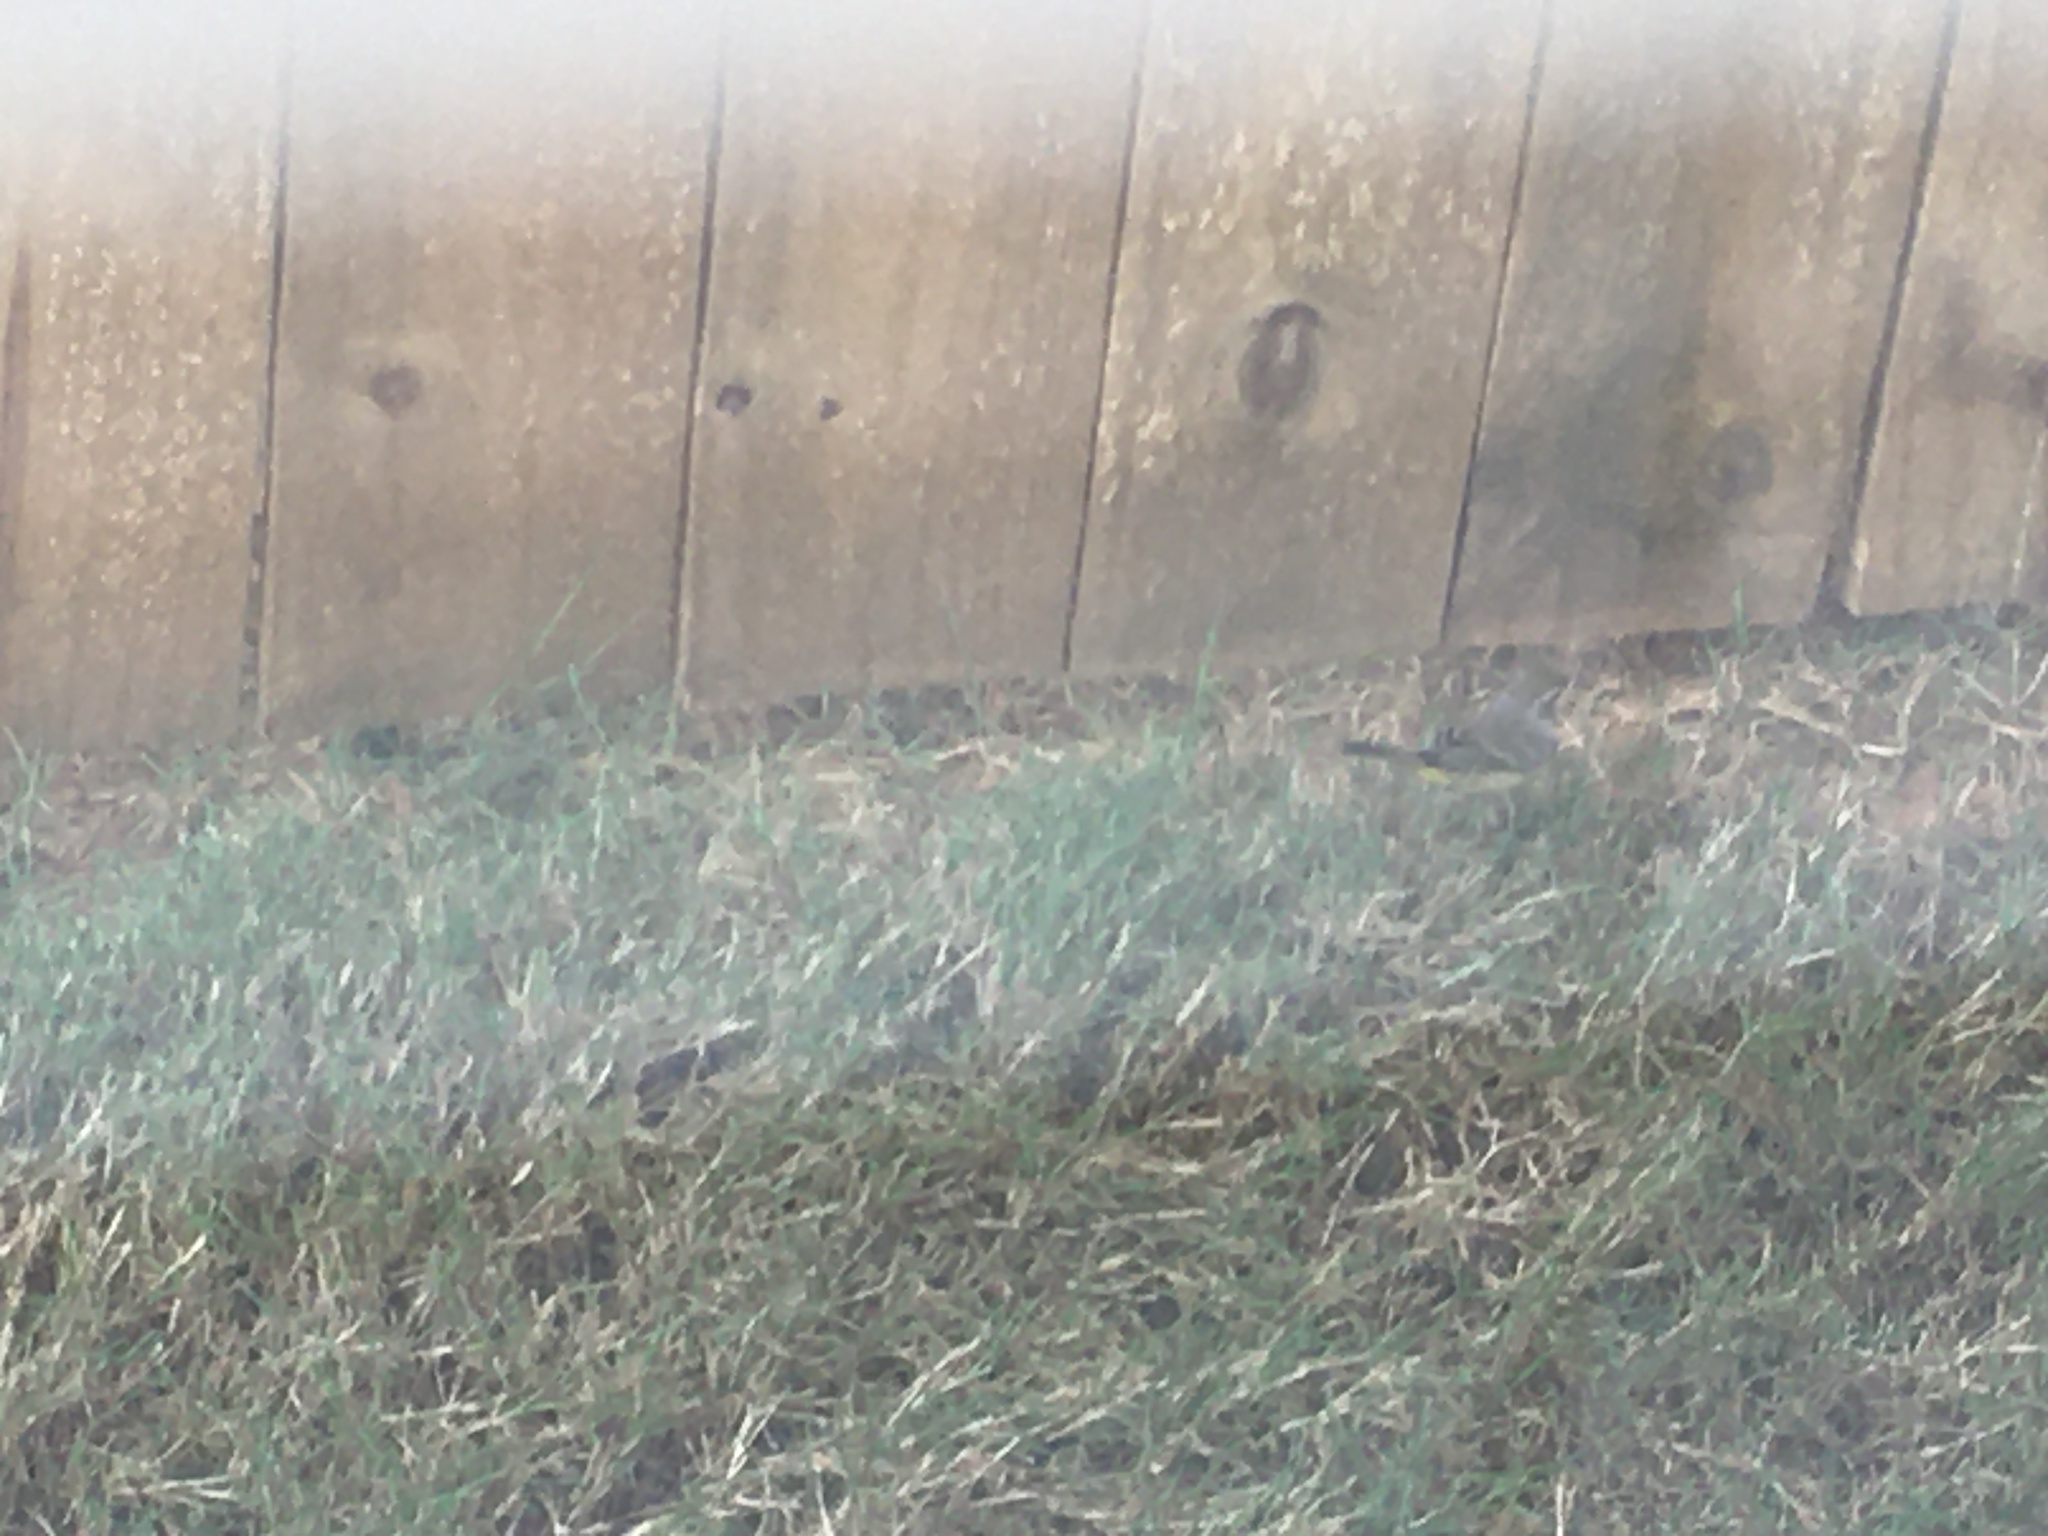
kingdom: Animalia
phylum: Chordata
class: Aves
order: Passeriformes
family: Parulidae
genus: Setophaga
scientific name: Setophaga palmarum
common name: Palm warbler
